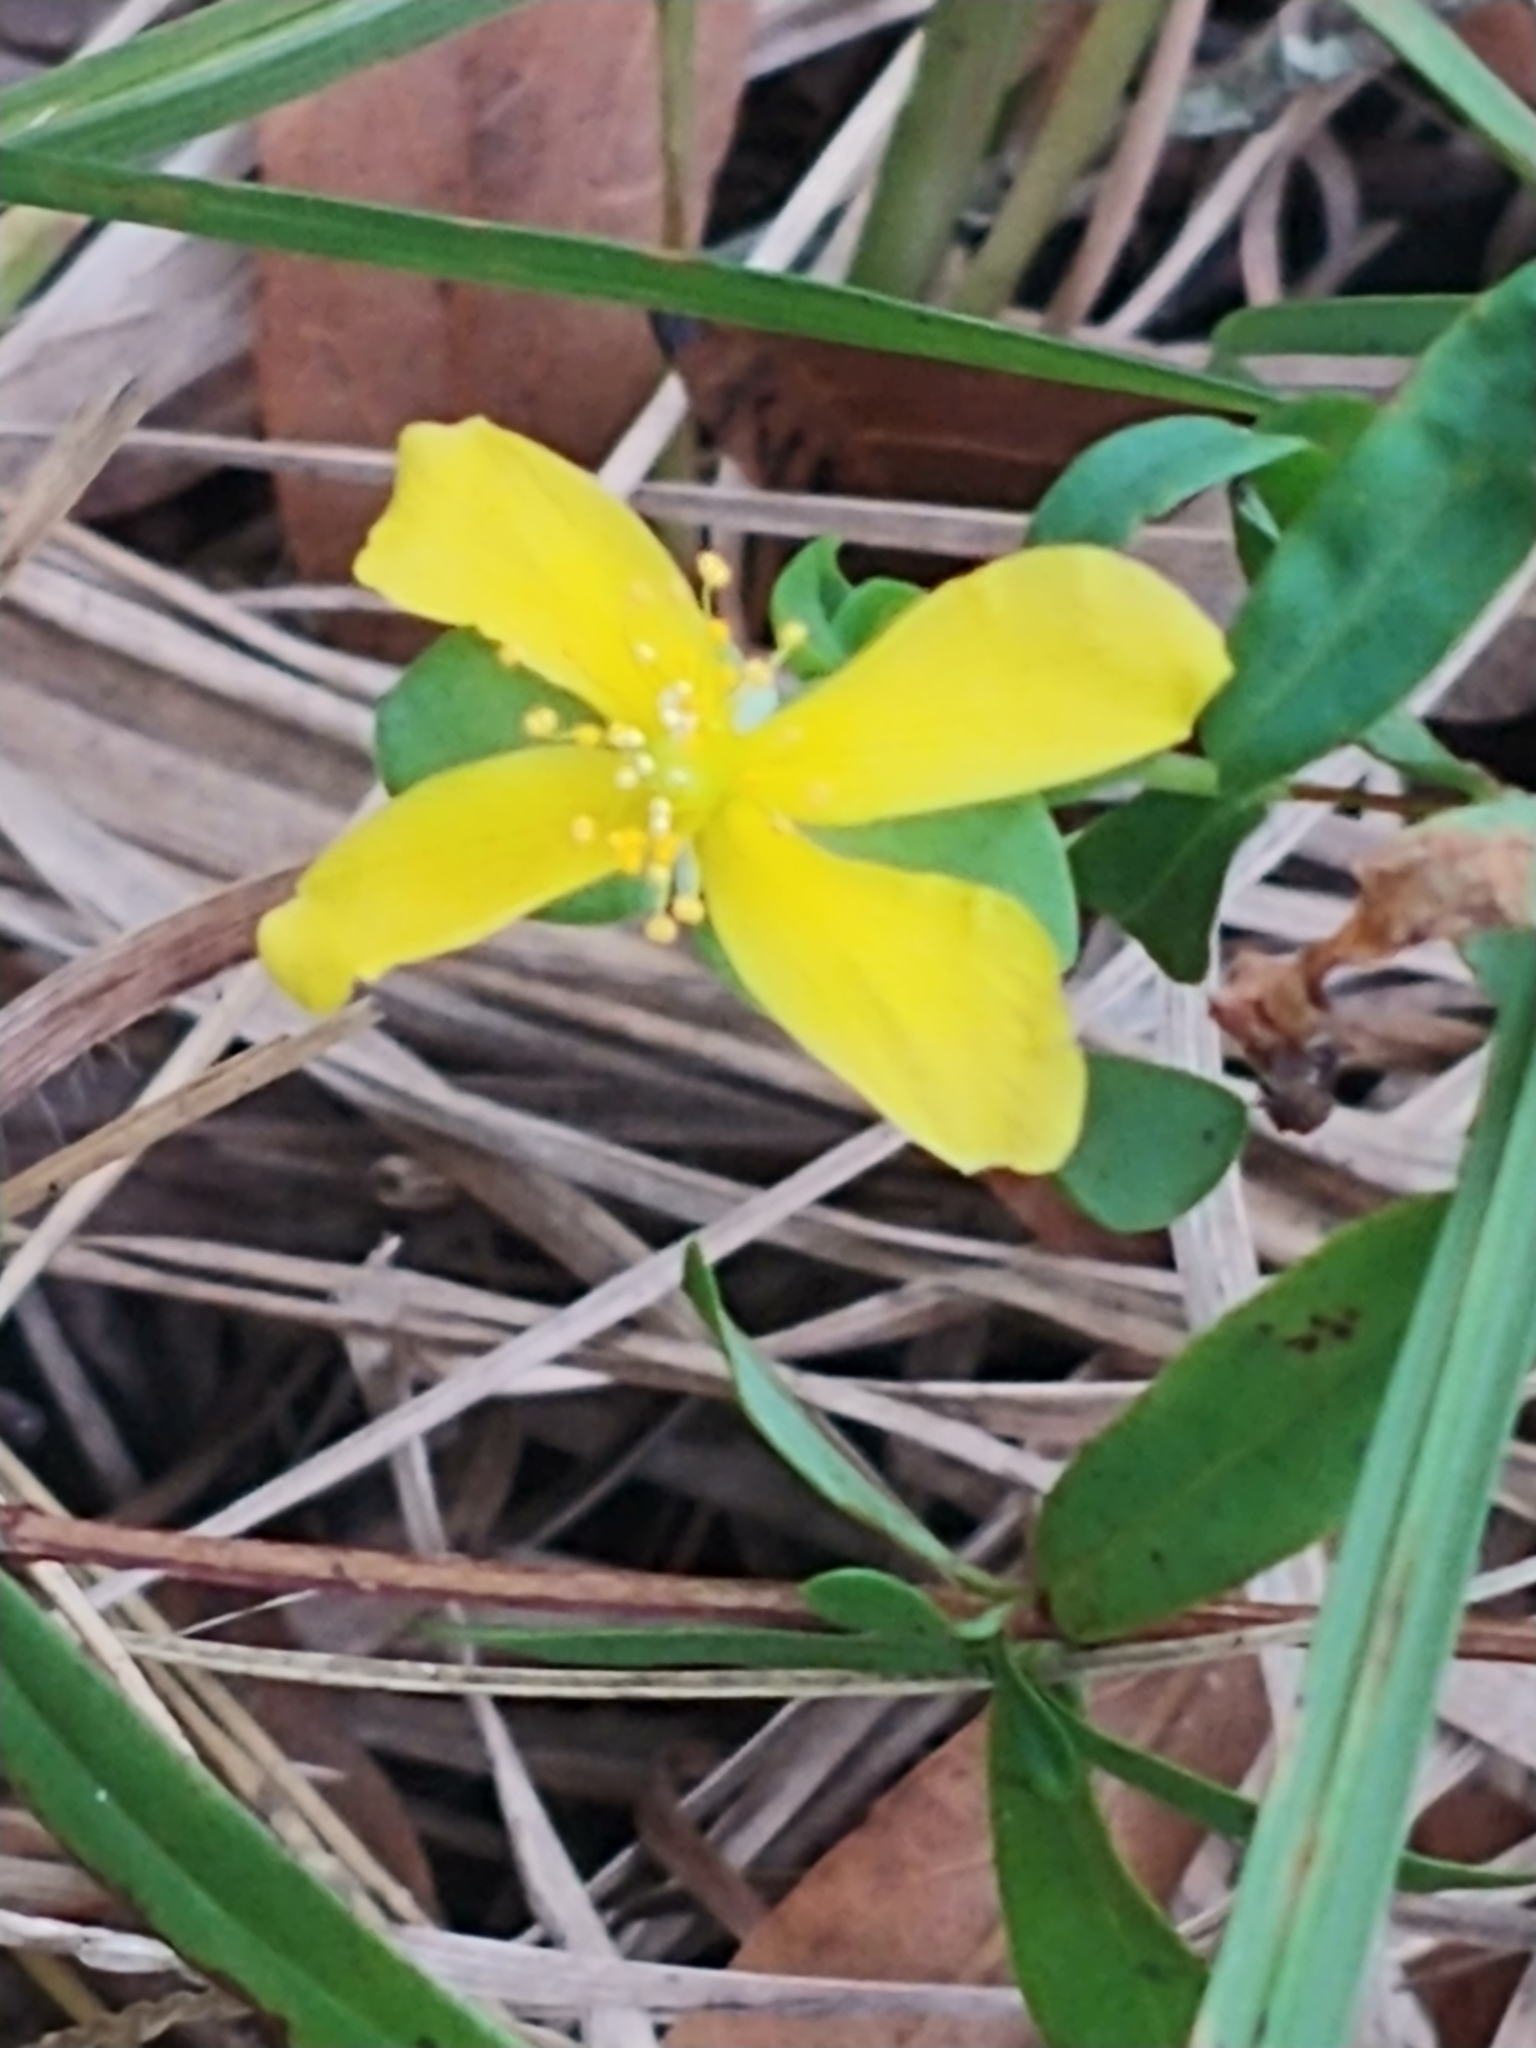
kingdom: Plantae
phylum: Tracheophyta
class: Magnoliopsida
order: Malpighiales
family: Hypericaceae
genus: Hypericum
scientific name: Hypericum hypericoides
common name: St. andrew's cross
